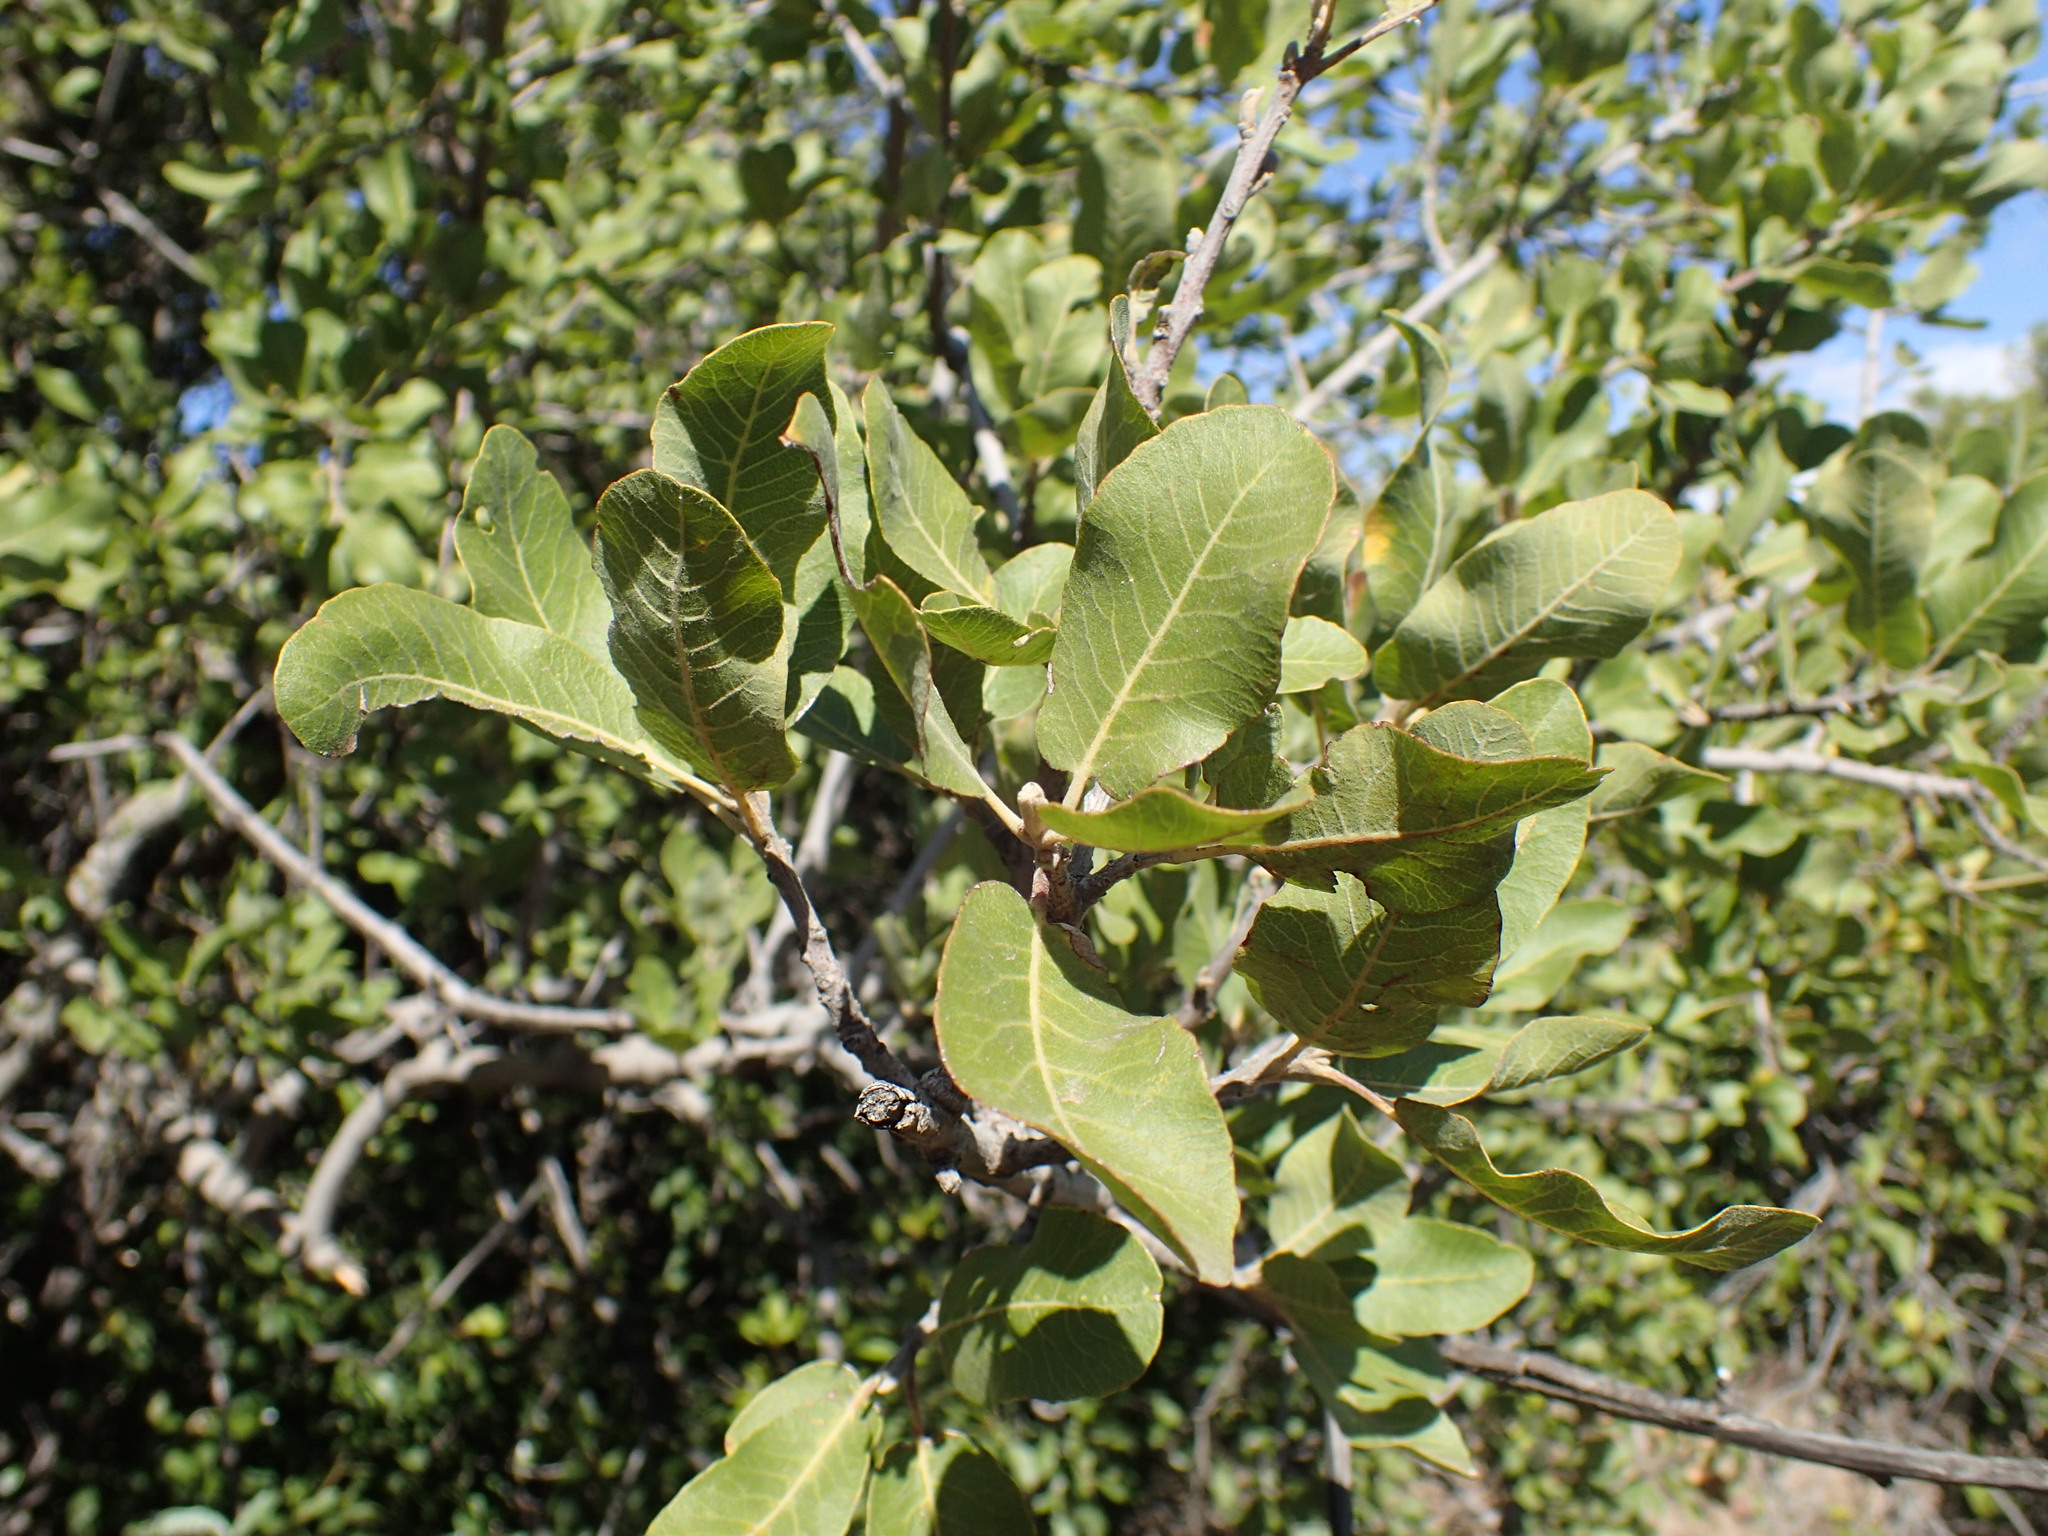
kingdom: Plantae
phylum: Tracheophyta
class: Magnoliopsida
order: Sapindales
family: Sapindaceae
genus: Pappea
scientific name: Pappea capensis
